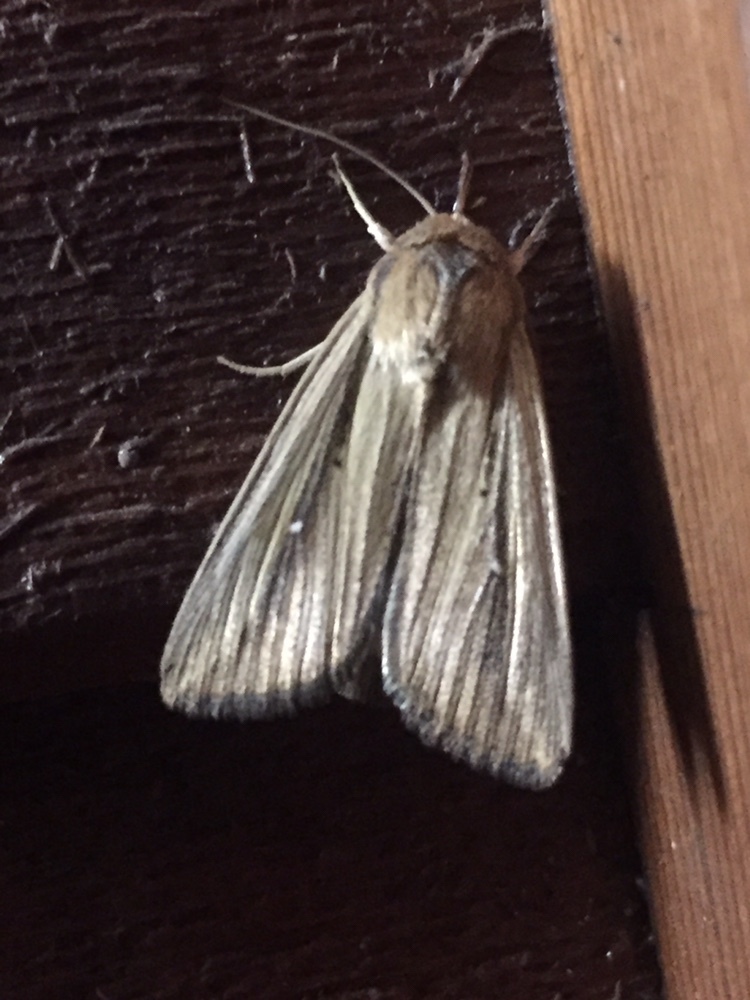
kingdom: Animalia
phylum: Arthropoda
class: Insecta
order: Lepidoptera
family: Noctuidae
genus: Leucania
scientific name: Leucania stenographa
